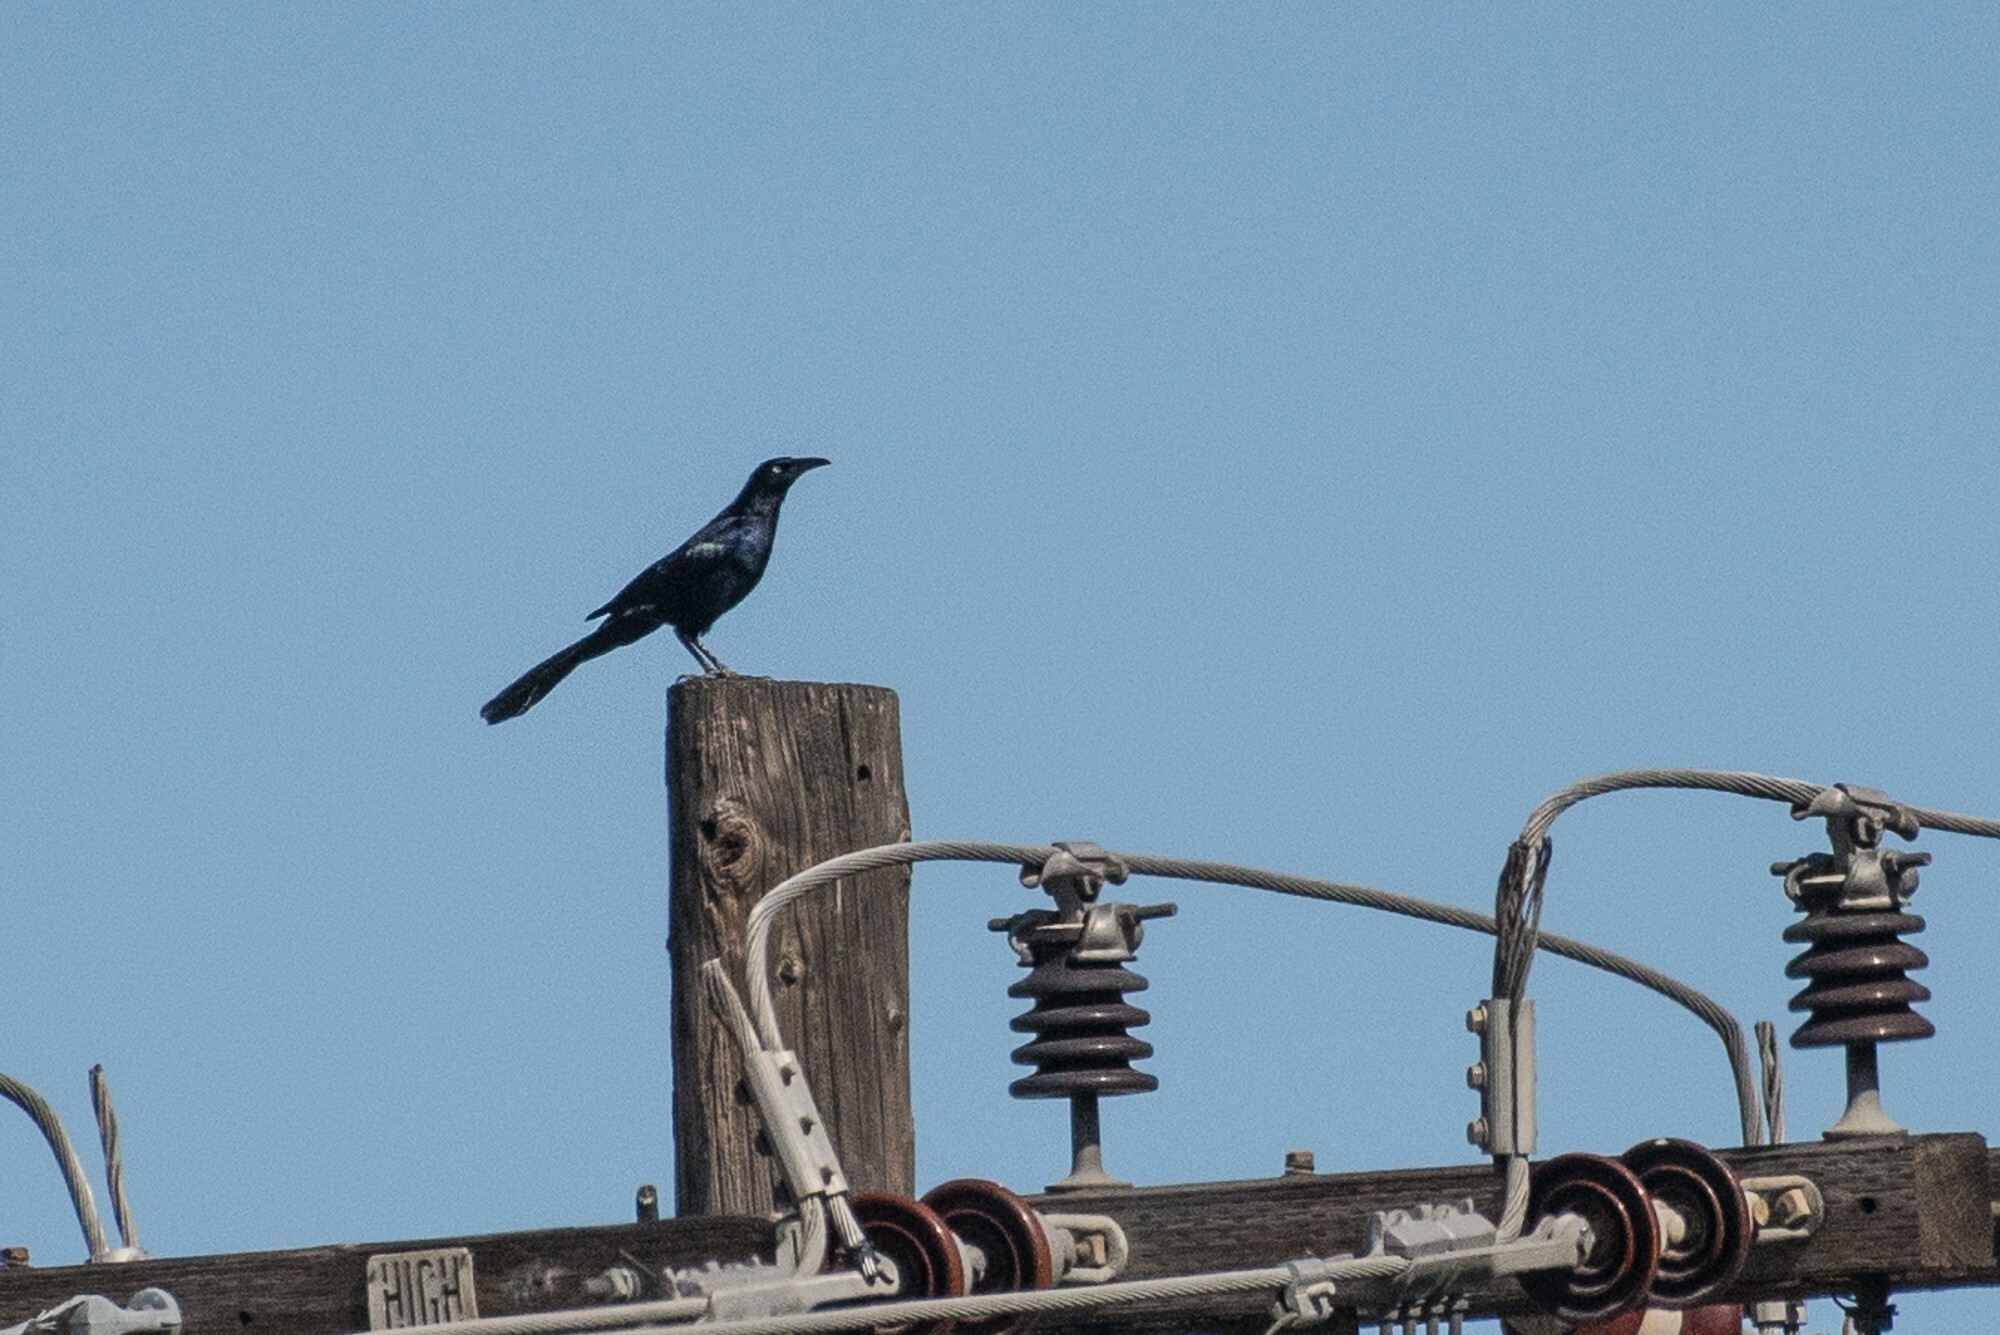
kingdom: Animalia
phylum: Chordata
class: Aves
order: Passeriformes
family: Icteridae
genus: Quiscalus
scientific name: Quiscalus mexicanus
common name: Great-tailed grackle
